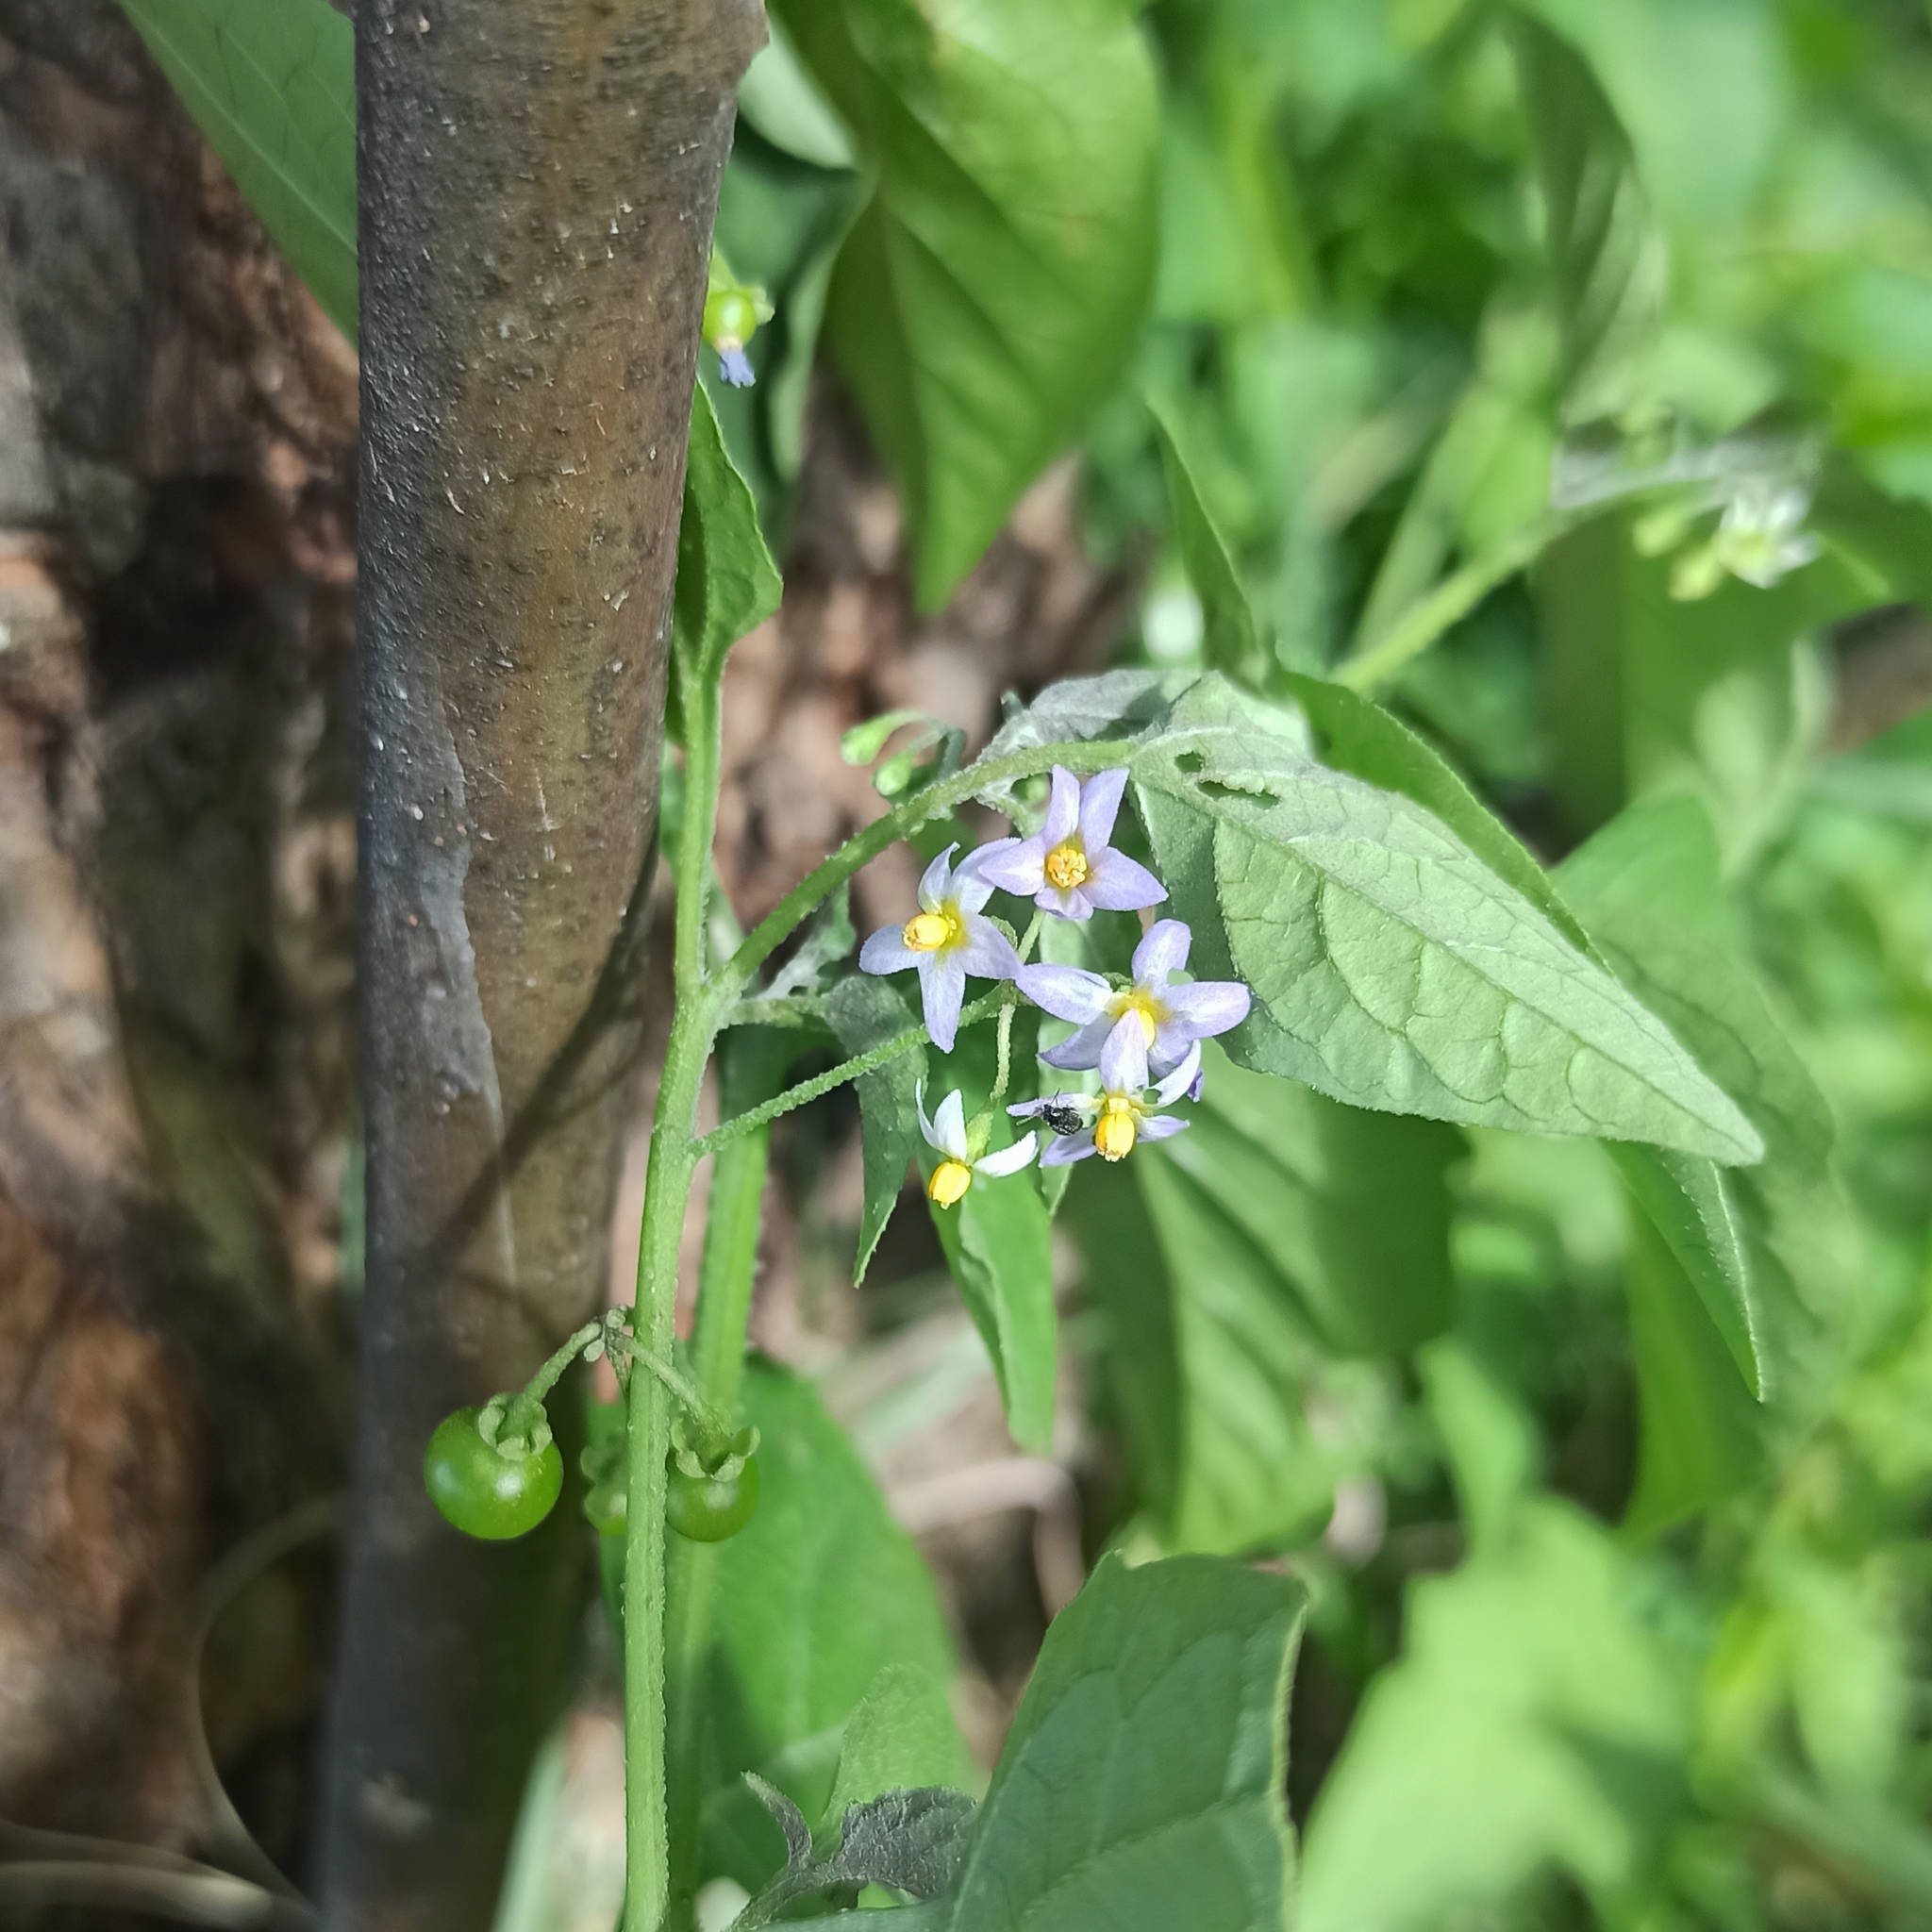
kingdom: Plantae
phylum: Tracheophyta
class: Magnoliopsida
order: Solanales
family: Solanaceae
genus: Solanum
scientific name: Solanum americanum
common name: American black nightshade
